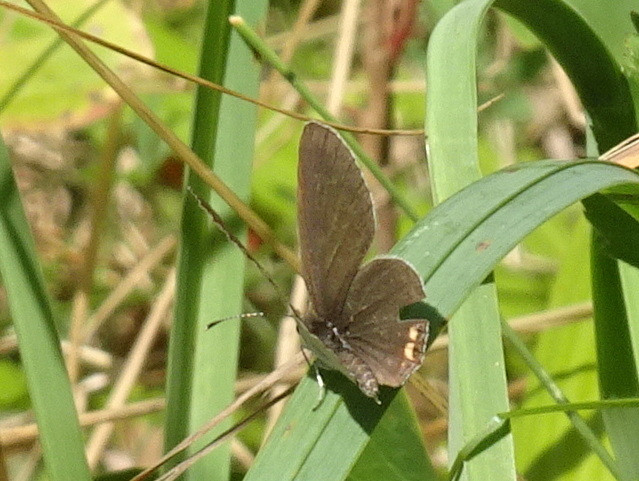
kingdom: Animalia
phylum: Arthropoda
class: Insecta
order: Lepidoptera
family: Lycaenidae
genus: Elkalyce
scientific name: Elkalyce comyntas
